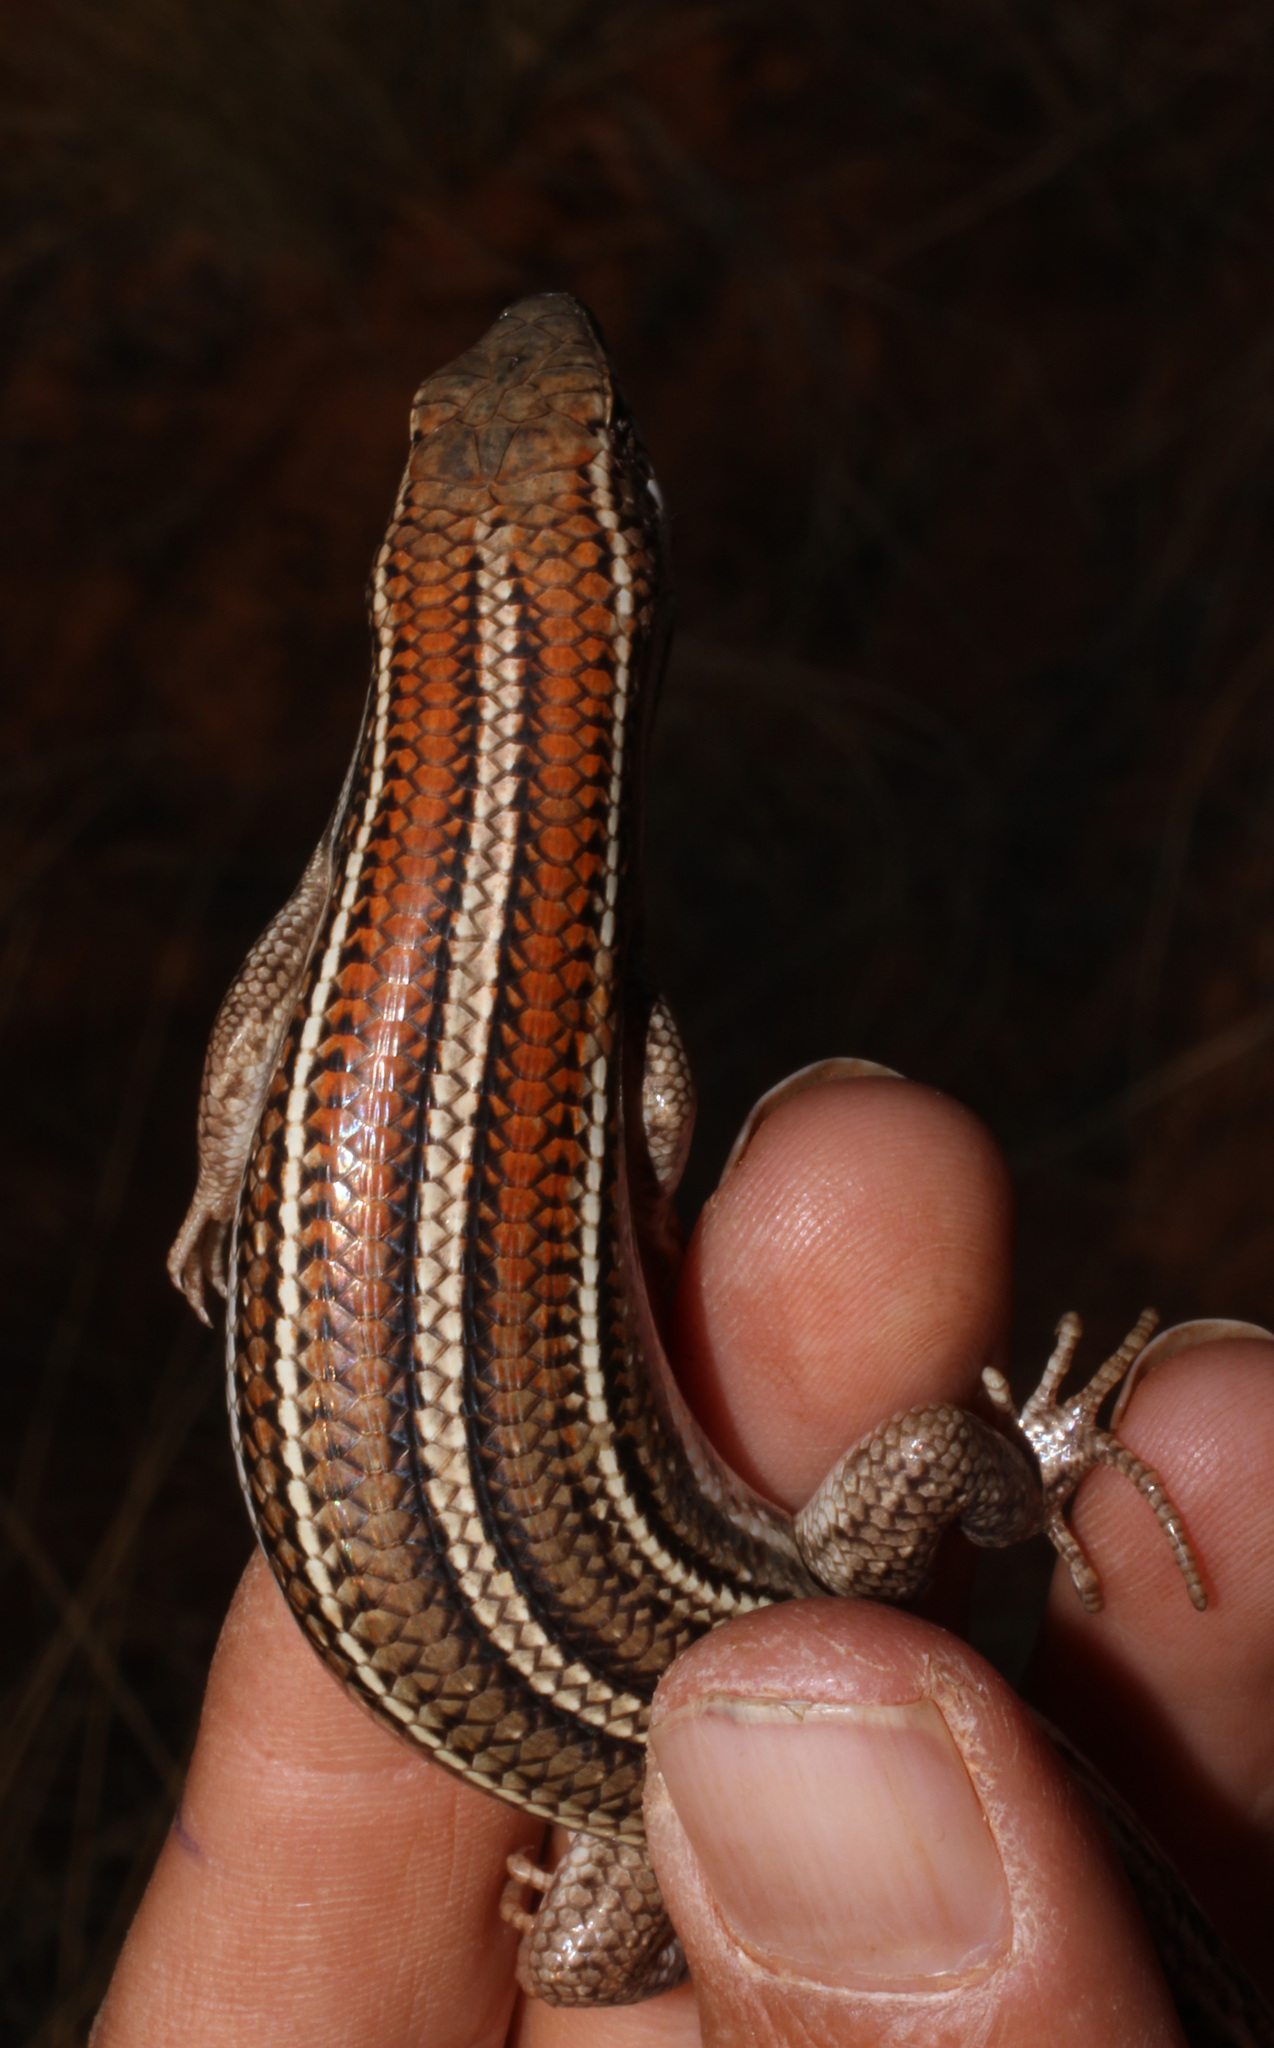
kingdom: Animalia
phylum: Chordata
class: Squamata
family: Scincidae
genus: Trachylepis
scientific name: Trachylepis occidentalis
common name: Western three-striped skink
